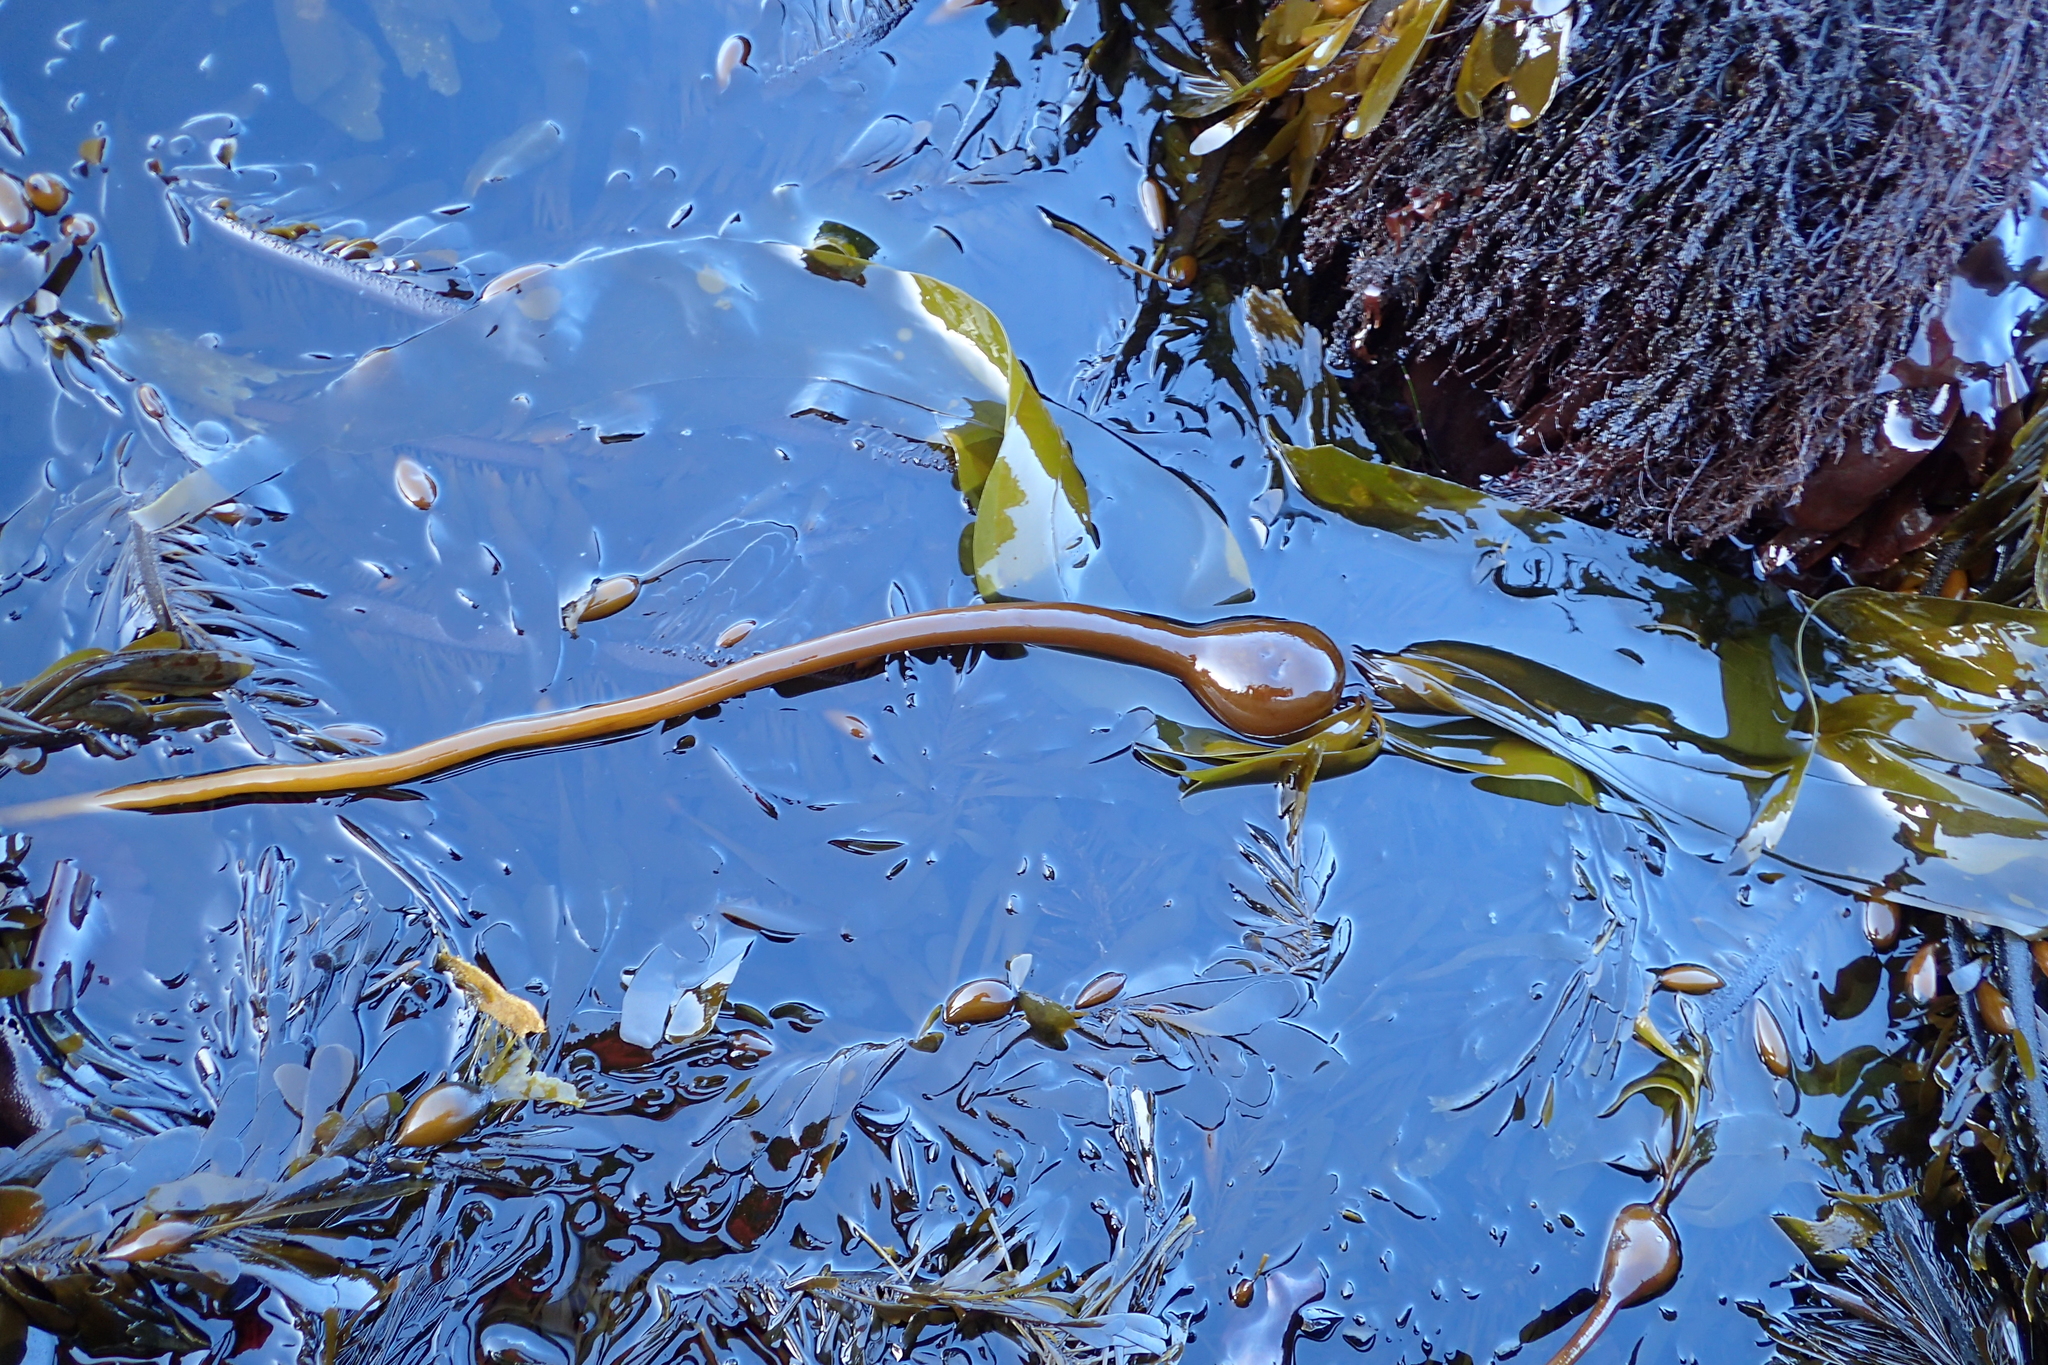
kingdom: Chromista
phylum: Ochrophyta
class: Phaeophyceae
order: Laminariales
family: Laminariaceae
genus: Nereocystis
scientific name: Nereocystis luetkeana
